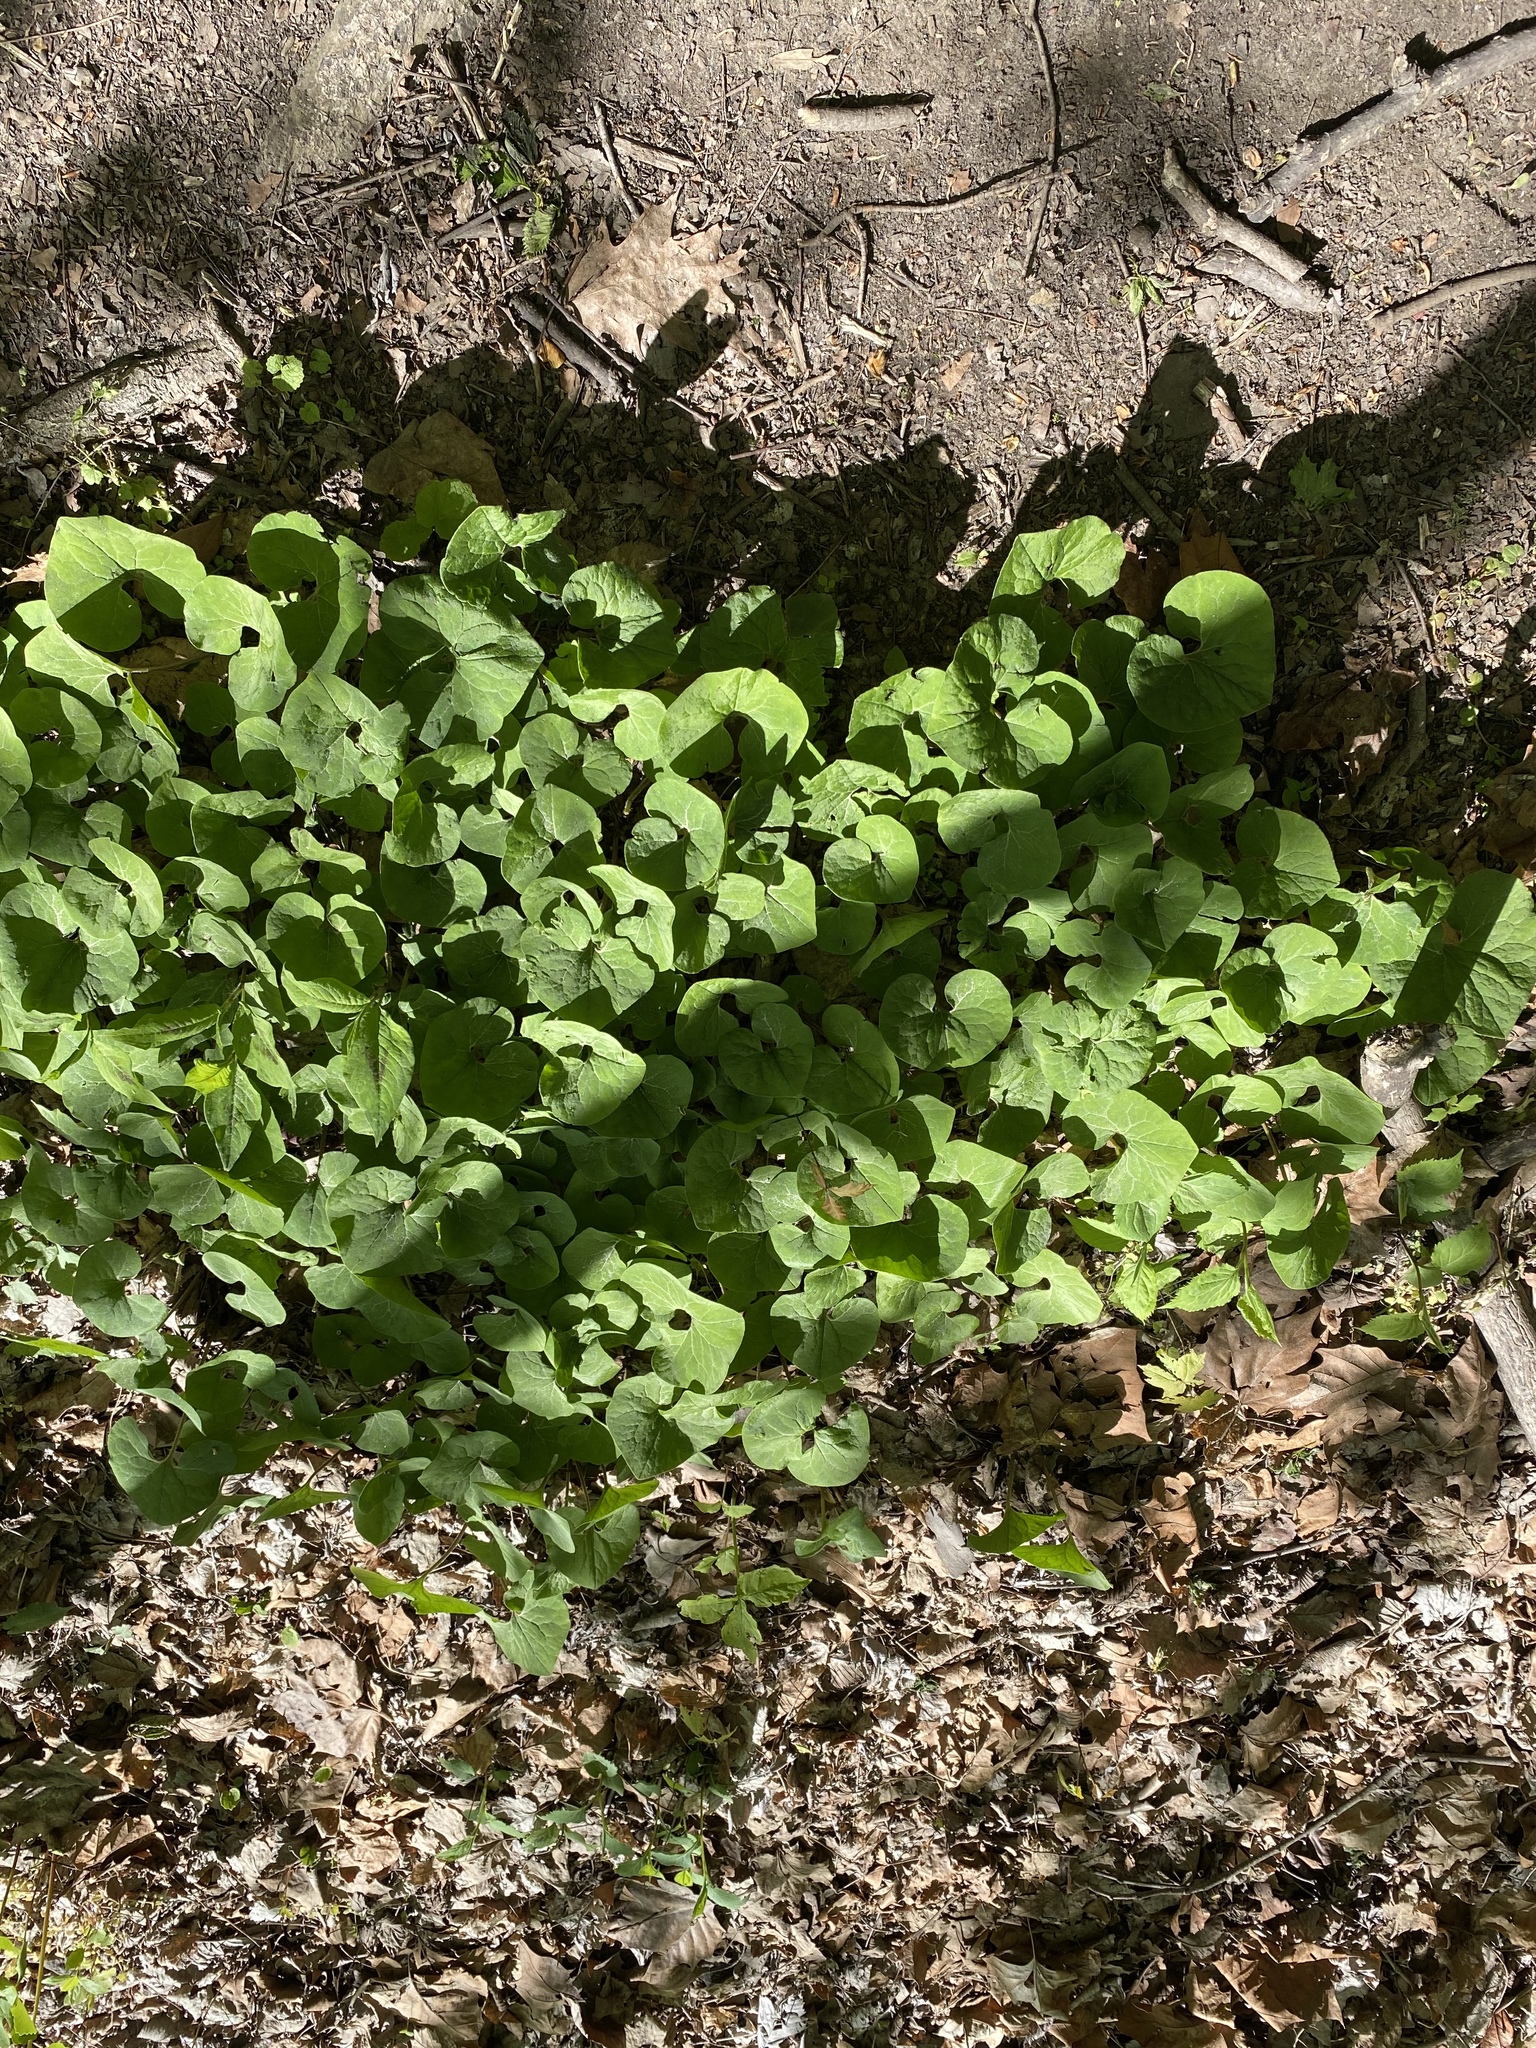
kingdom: Plantae
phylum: Tracheophyta
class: Magnoliopsida
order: Piperales
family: Aristolochiaceae
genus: Asarum
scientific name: Asarum canadense
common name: Wild ginger
